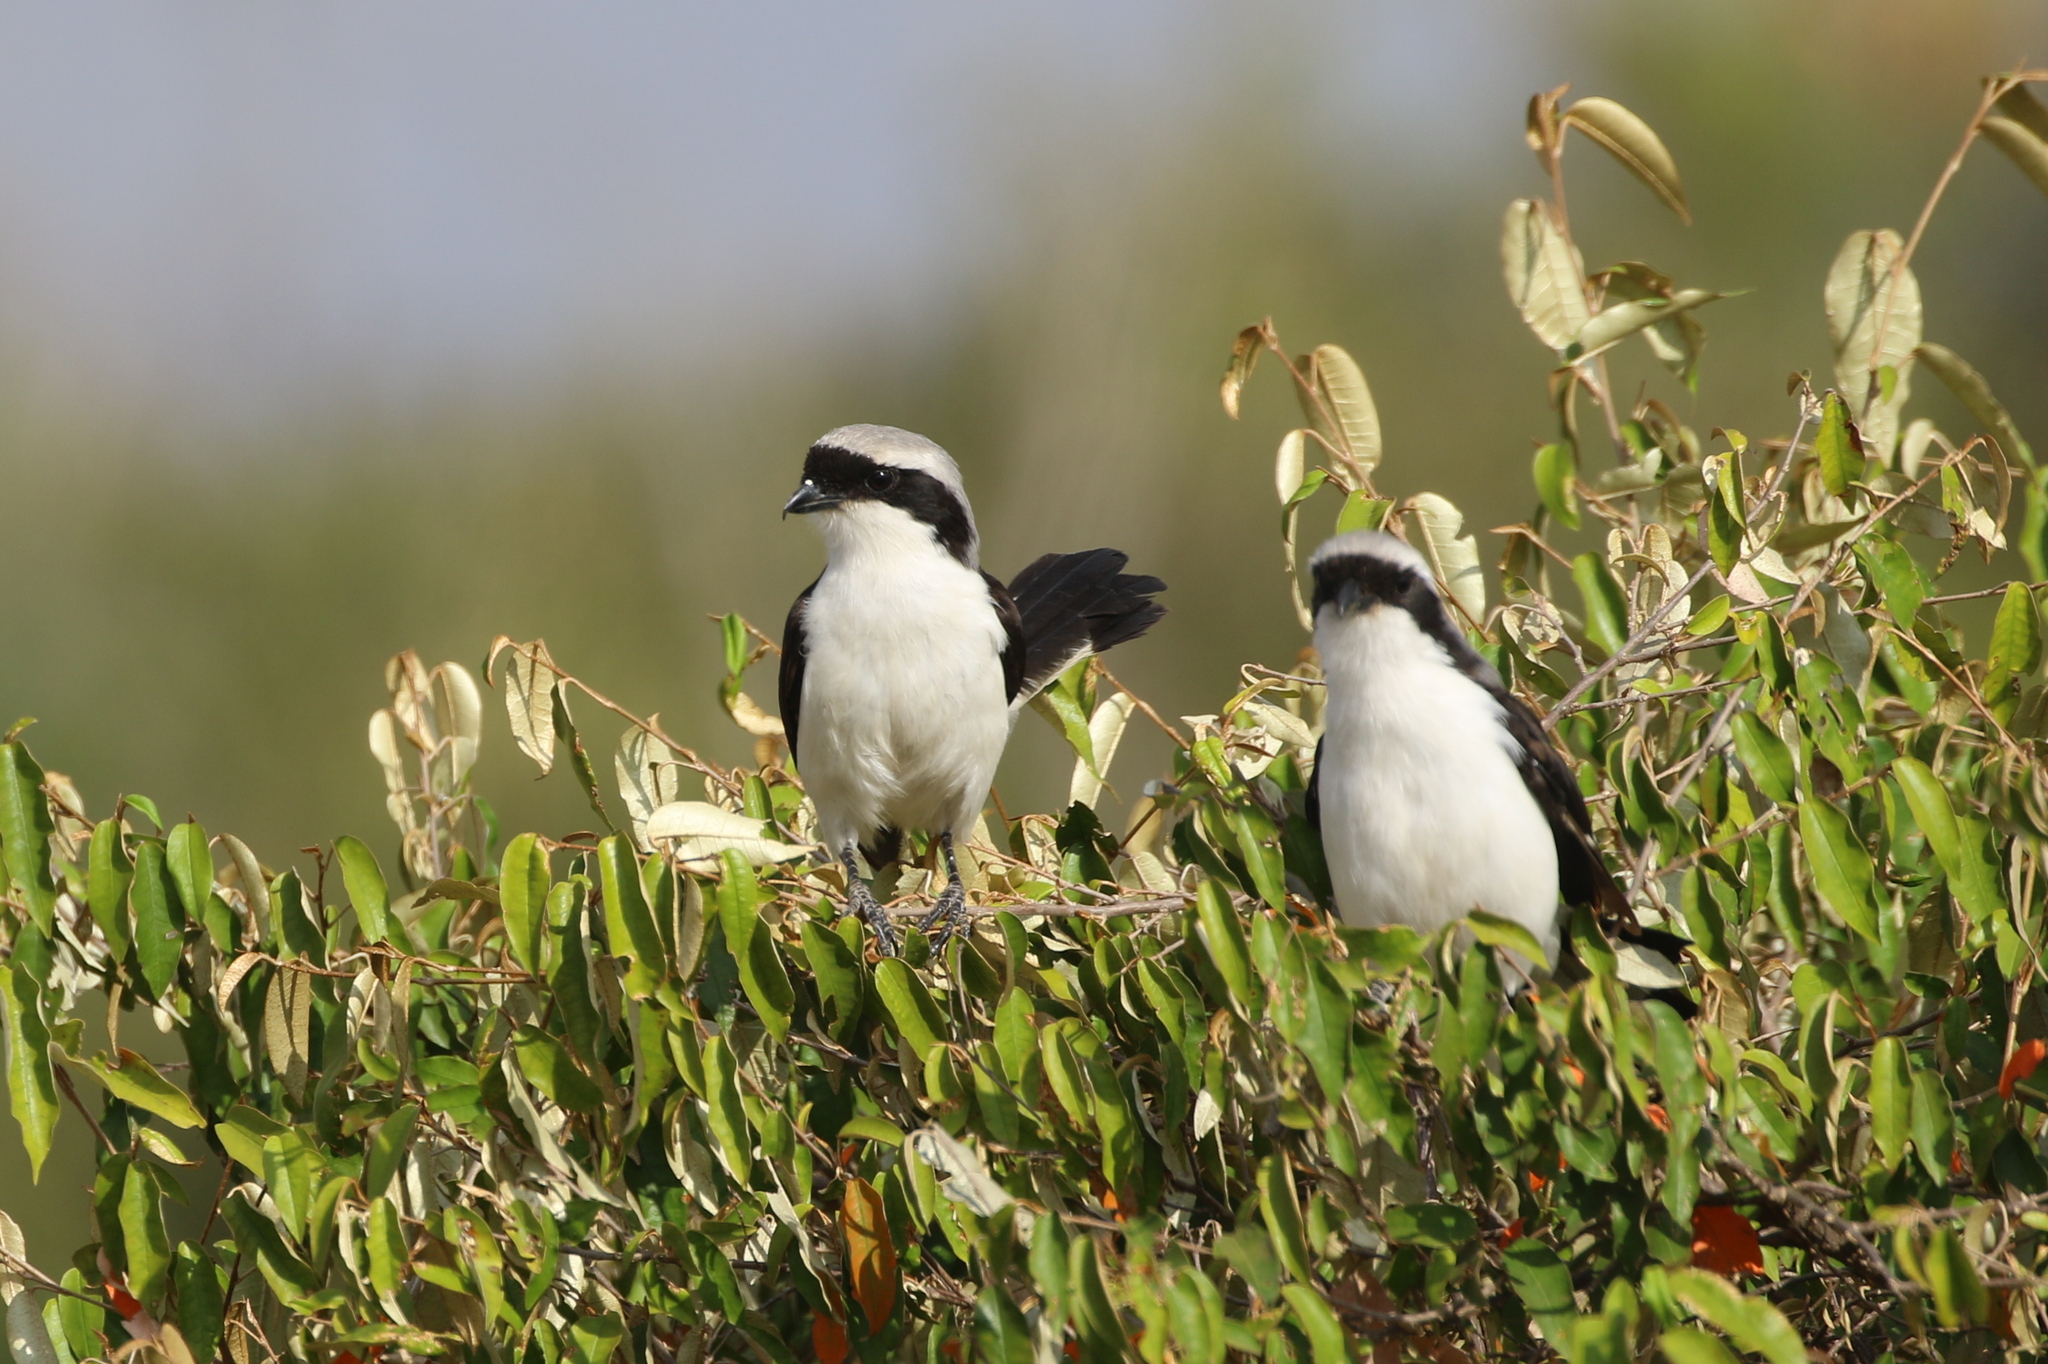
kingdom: Animalia
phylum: Chordata
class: Aves
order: Passeriformes
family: Laniidae
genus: Lanius
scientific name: Lanius excubitoroides
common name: Grey-backed fiscal
